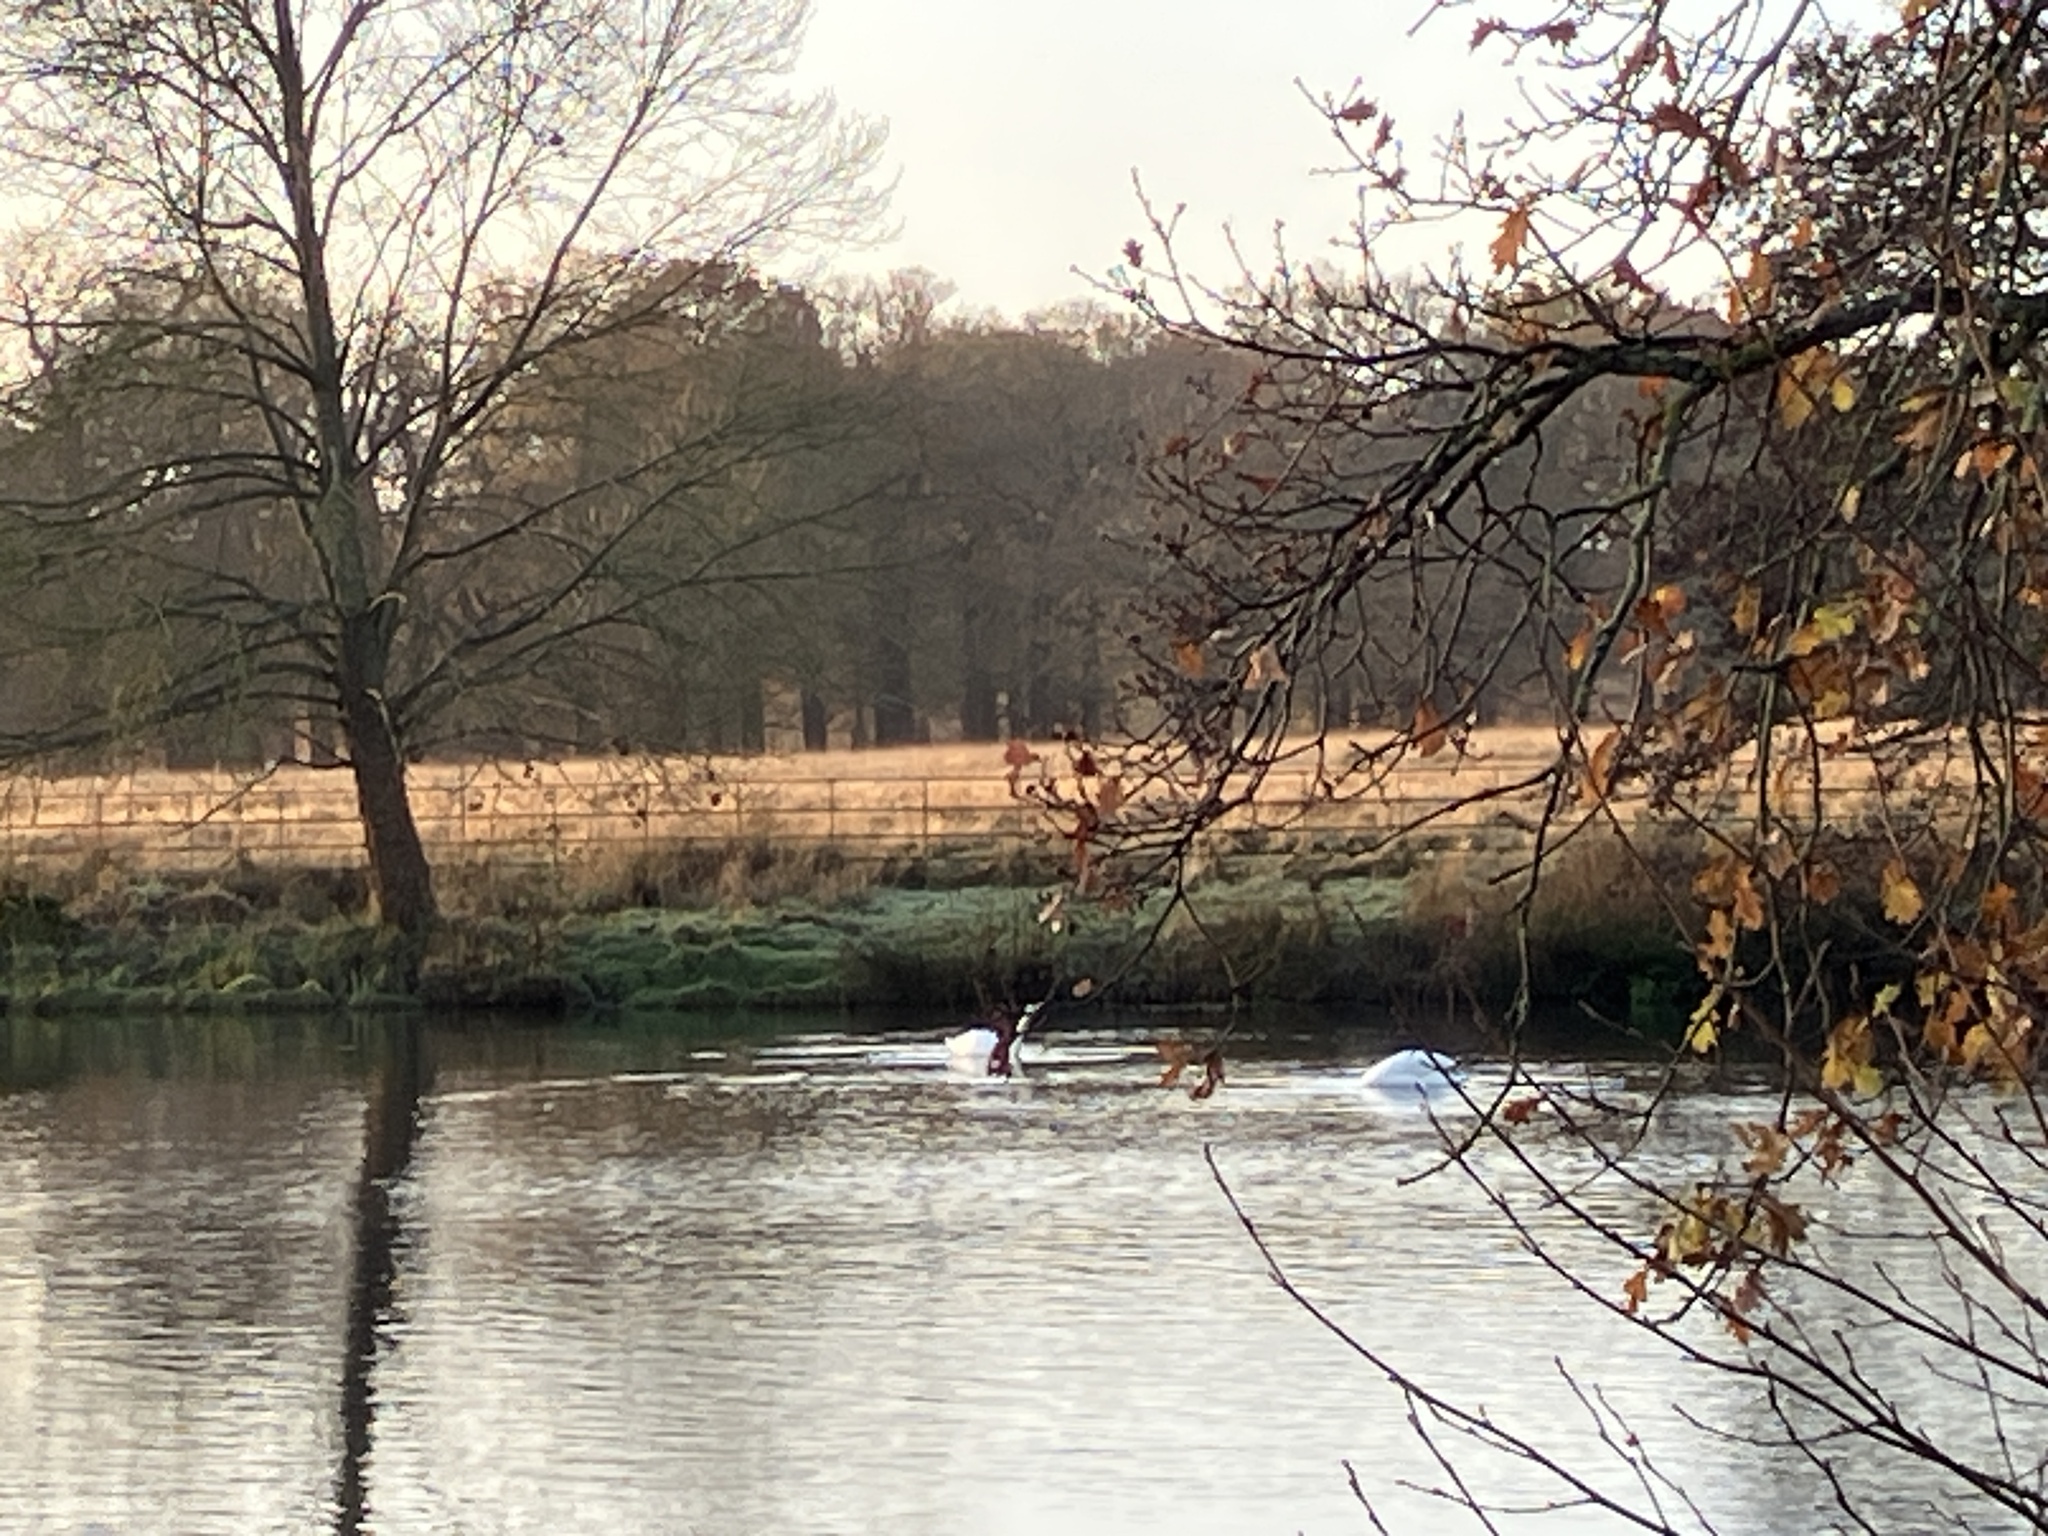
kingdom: Animalia
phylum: Chordata
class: Aves
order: Anseriformes
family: Anatidae
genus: Cygnus
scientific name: Cygnus olor
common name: Mute swan
